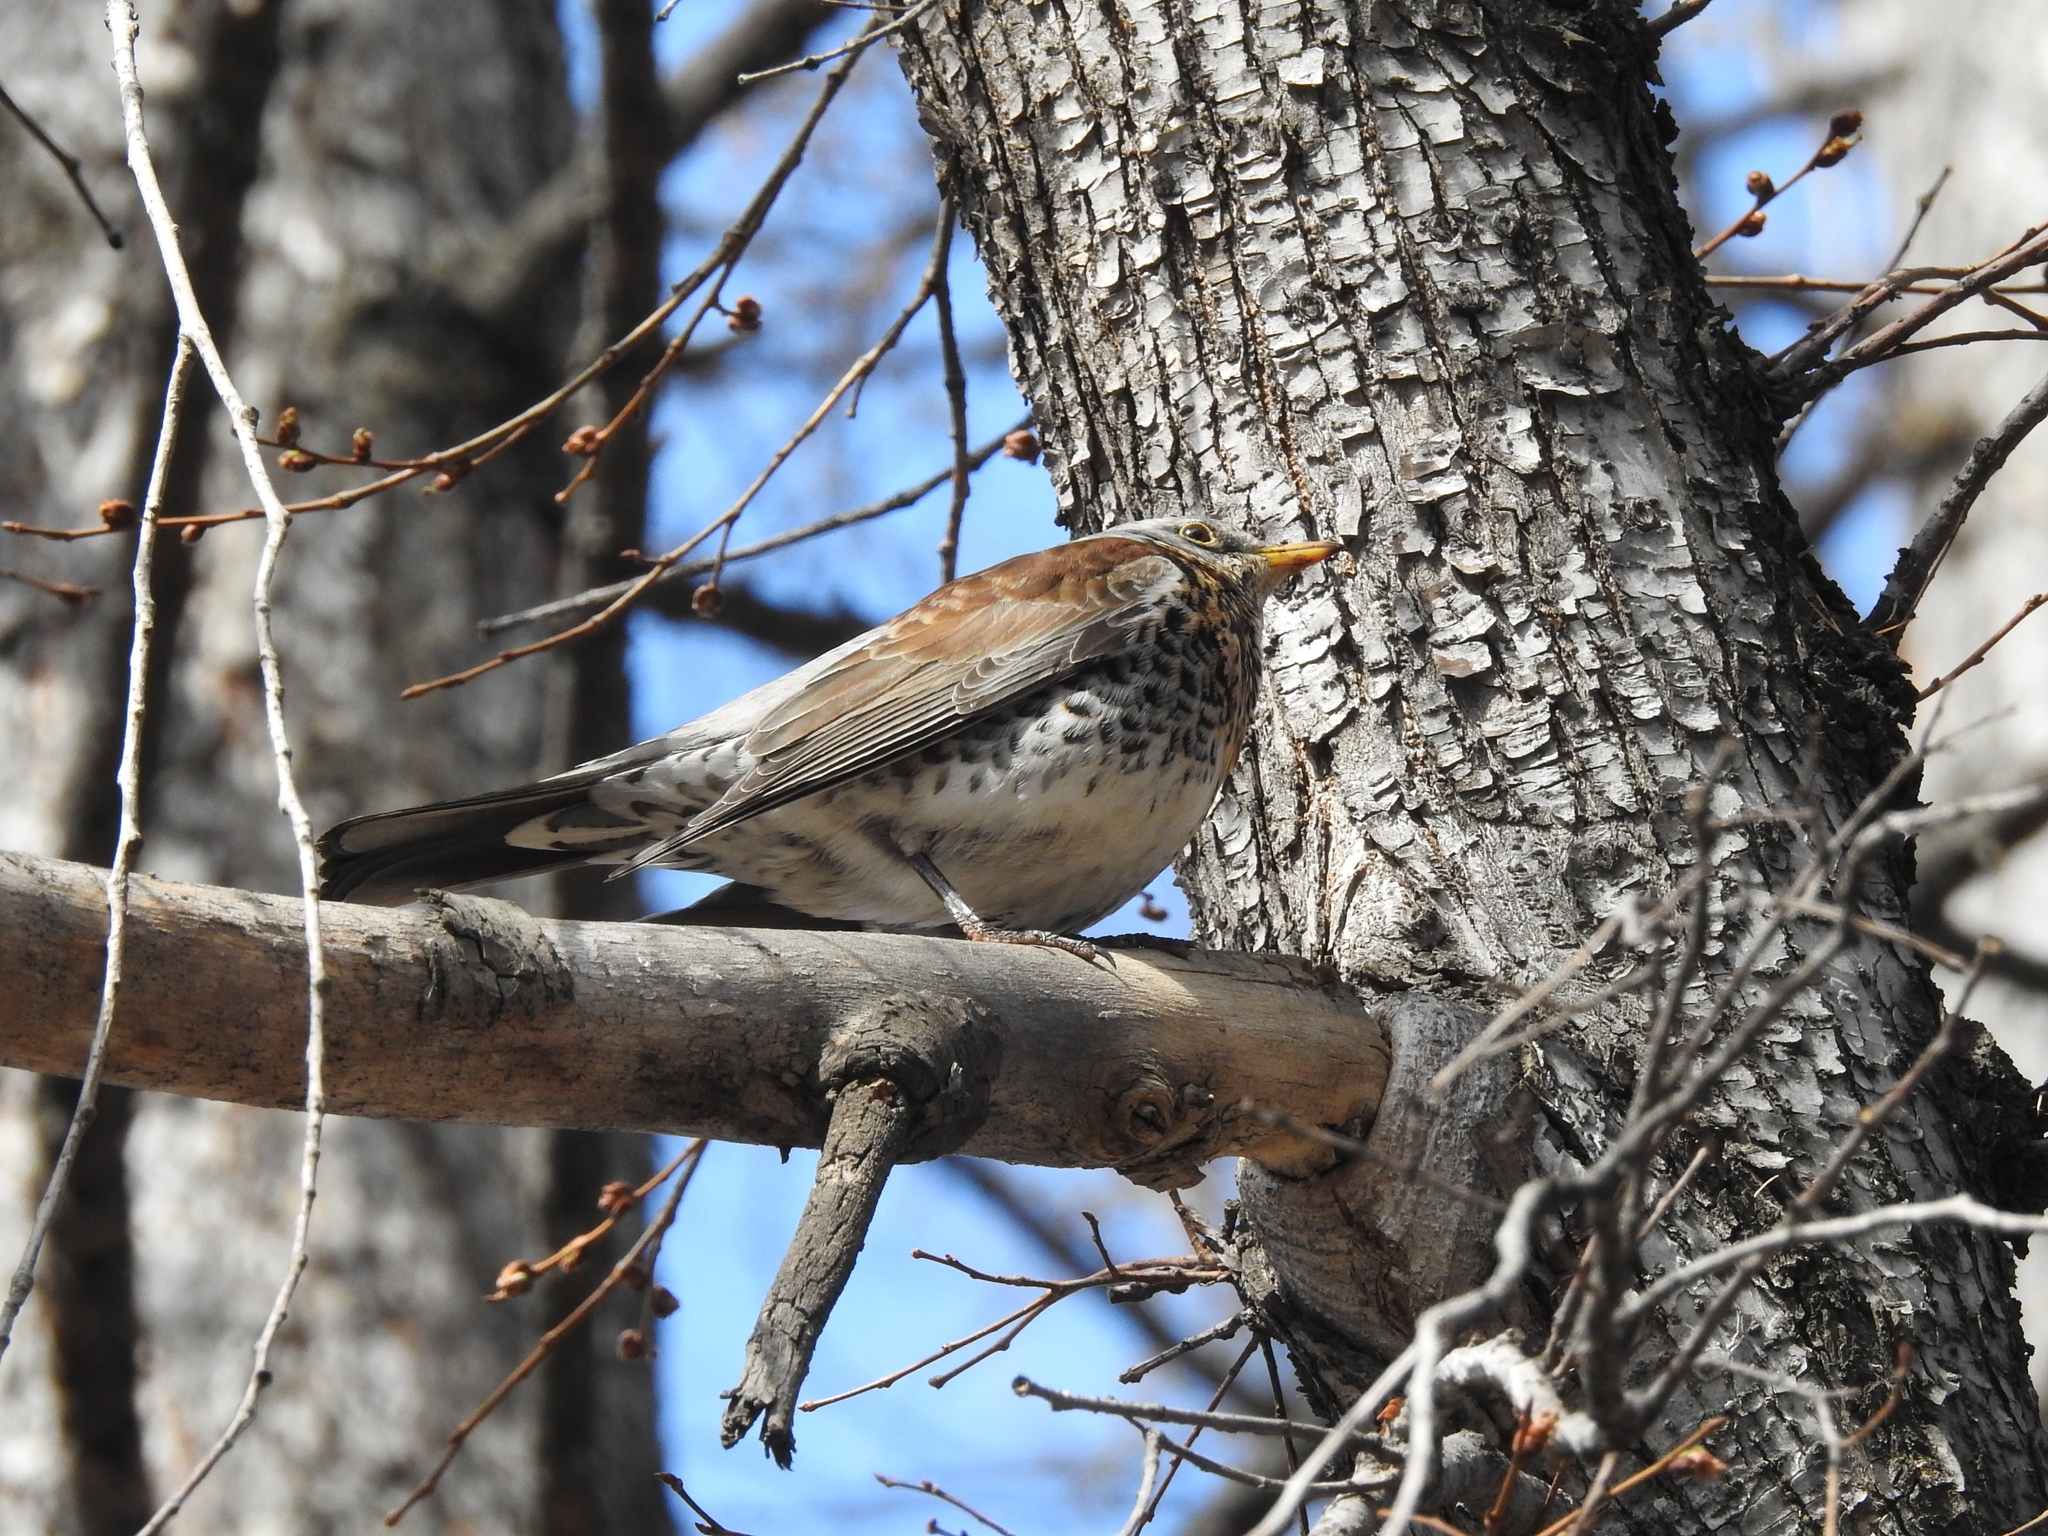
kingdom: Animalia
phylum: Chordata
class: Aves
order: Passeriformes
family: Turdidae
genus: Turdus
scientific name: Turdus pilaris
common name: Fieldfare
